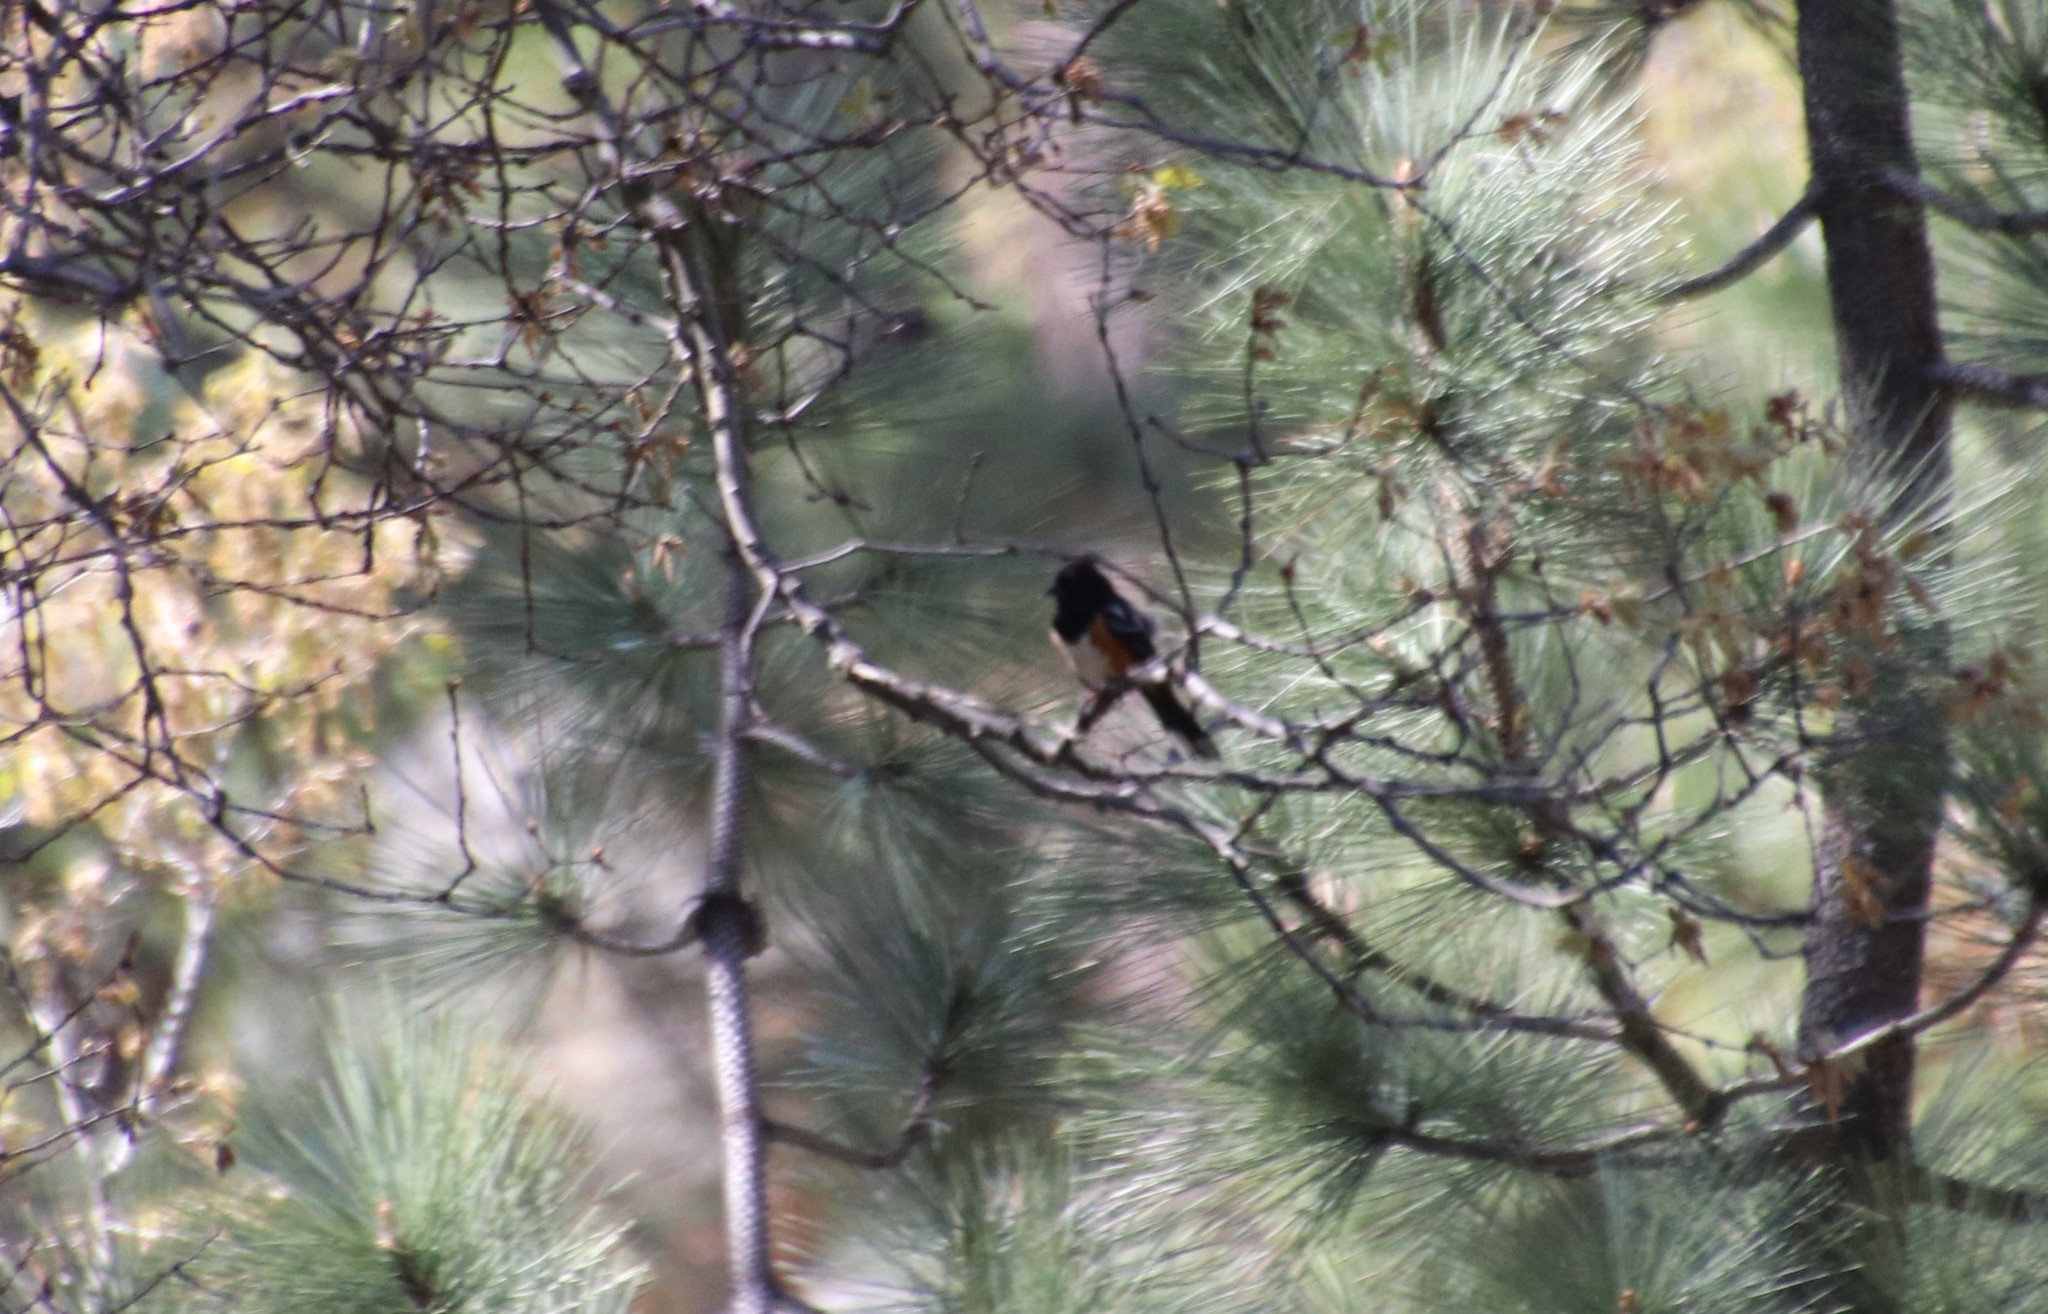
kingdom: Animalia
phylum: Chordata
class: Aves
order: Passeriformes
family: Passerellidae
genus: Pipilo
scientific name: Pipilo maculatus
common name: Spotted towhee
